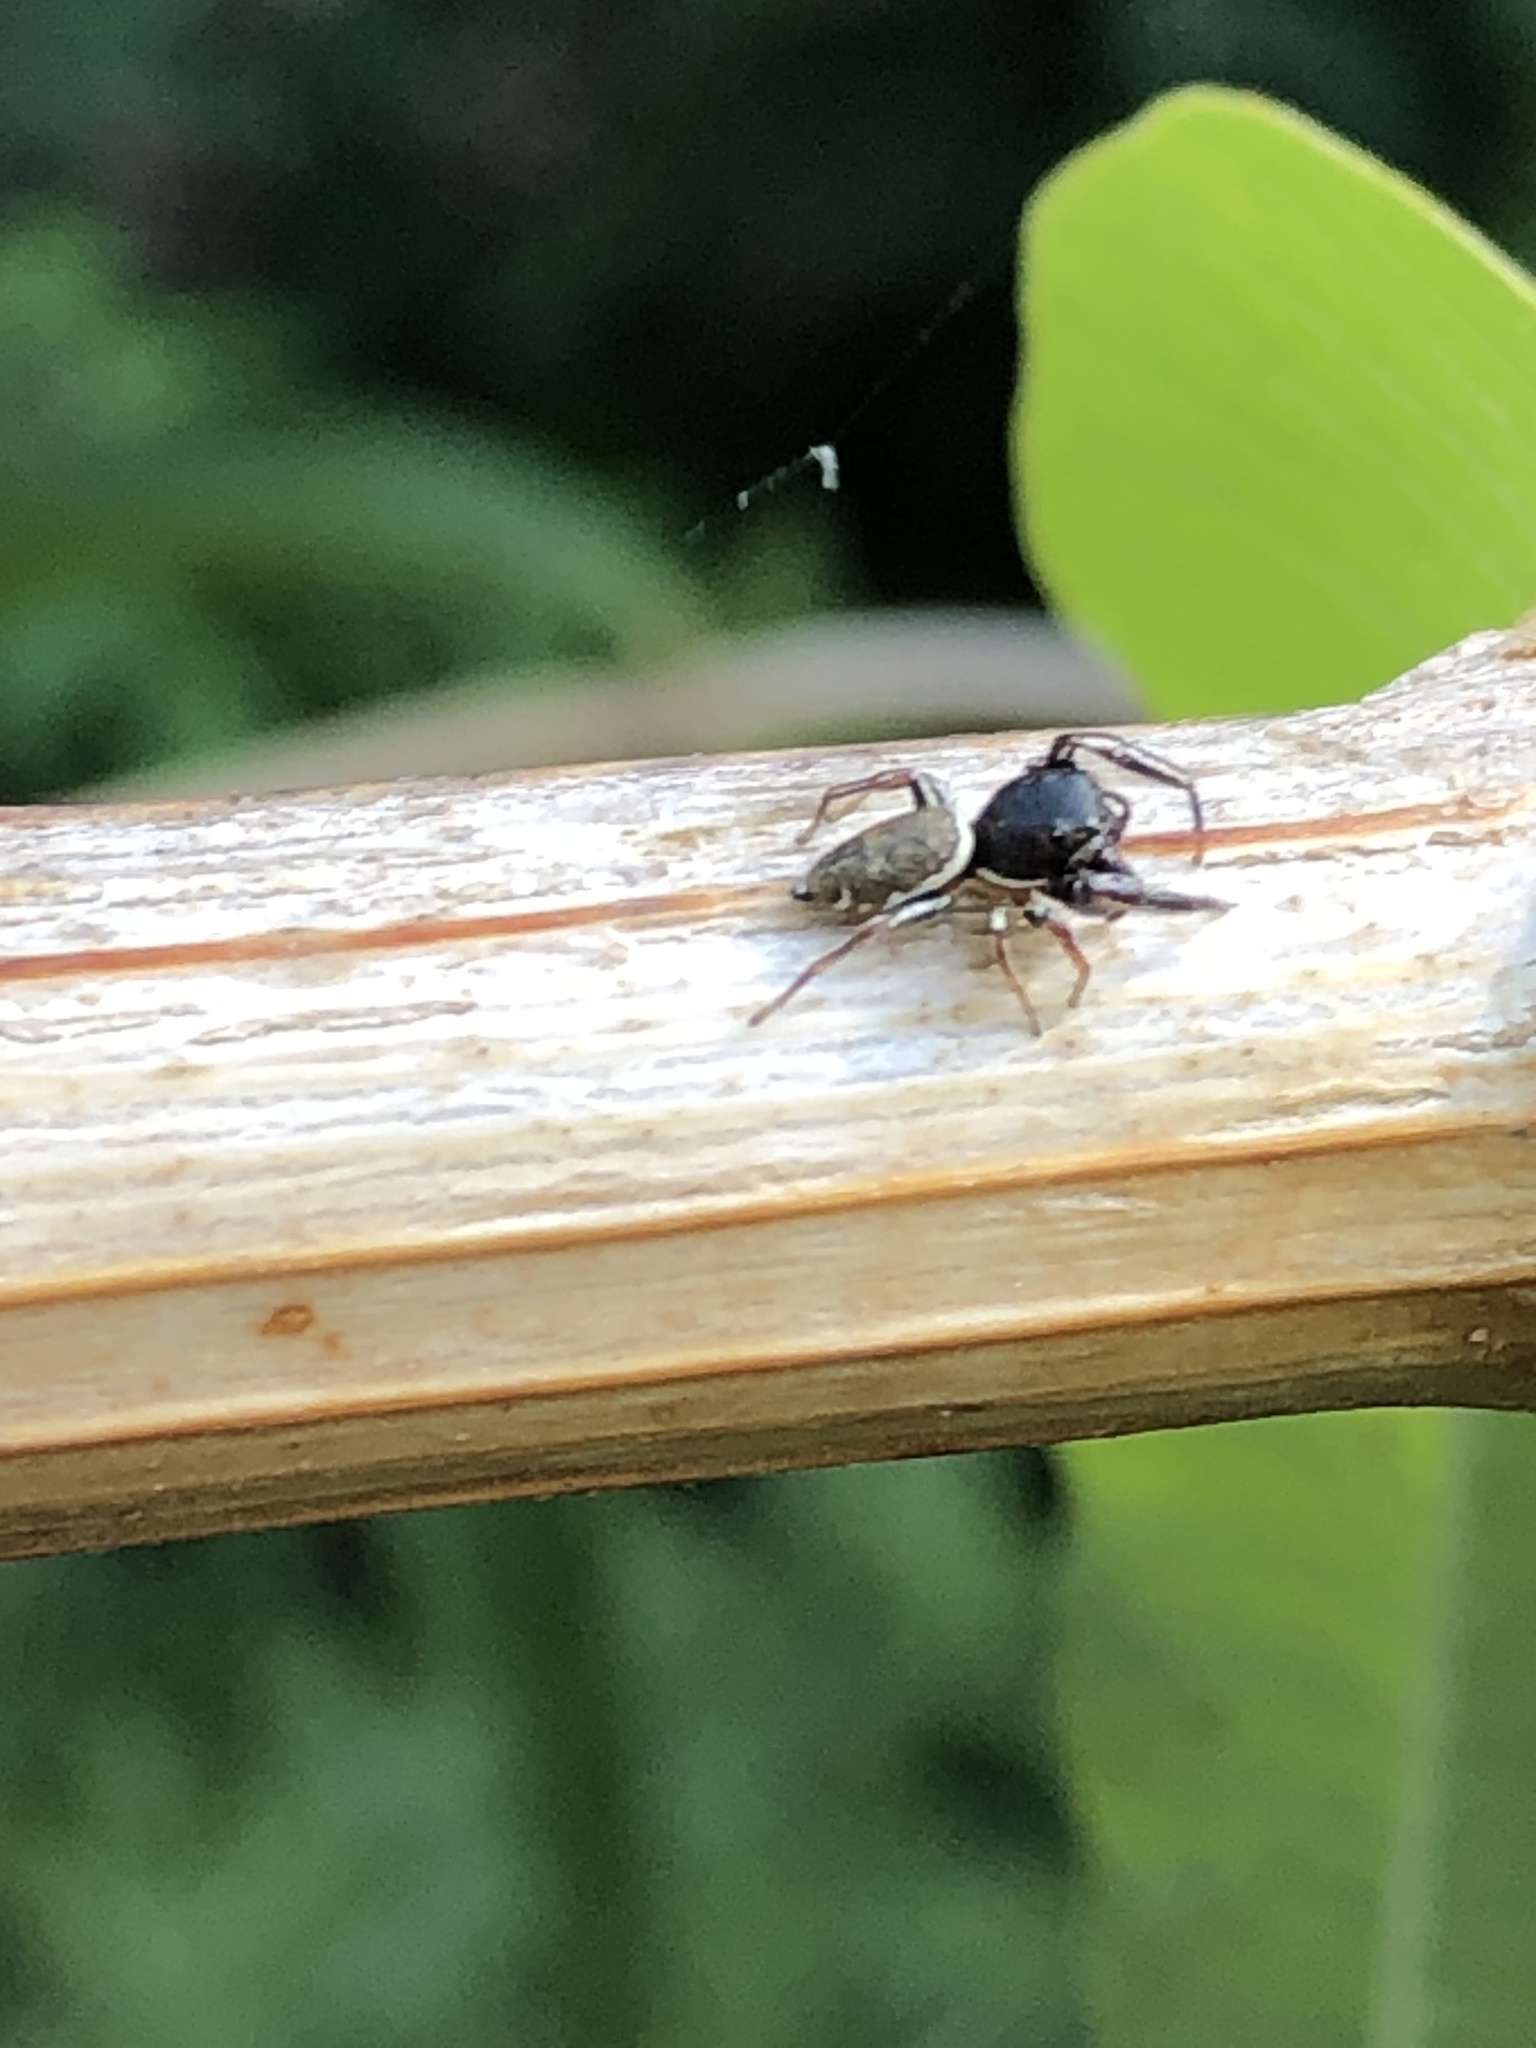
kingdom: Animalia
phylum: Arthropoda
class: Arachnida
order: Araneae
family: Salticidae
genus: Sassacus
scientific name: Sassacus vitis
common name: Jumping spiders
